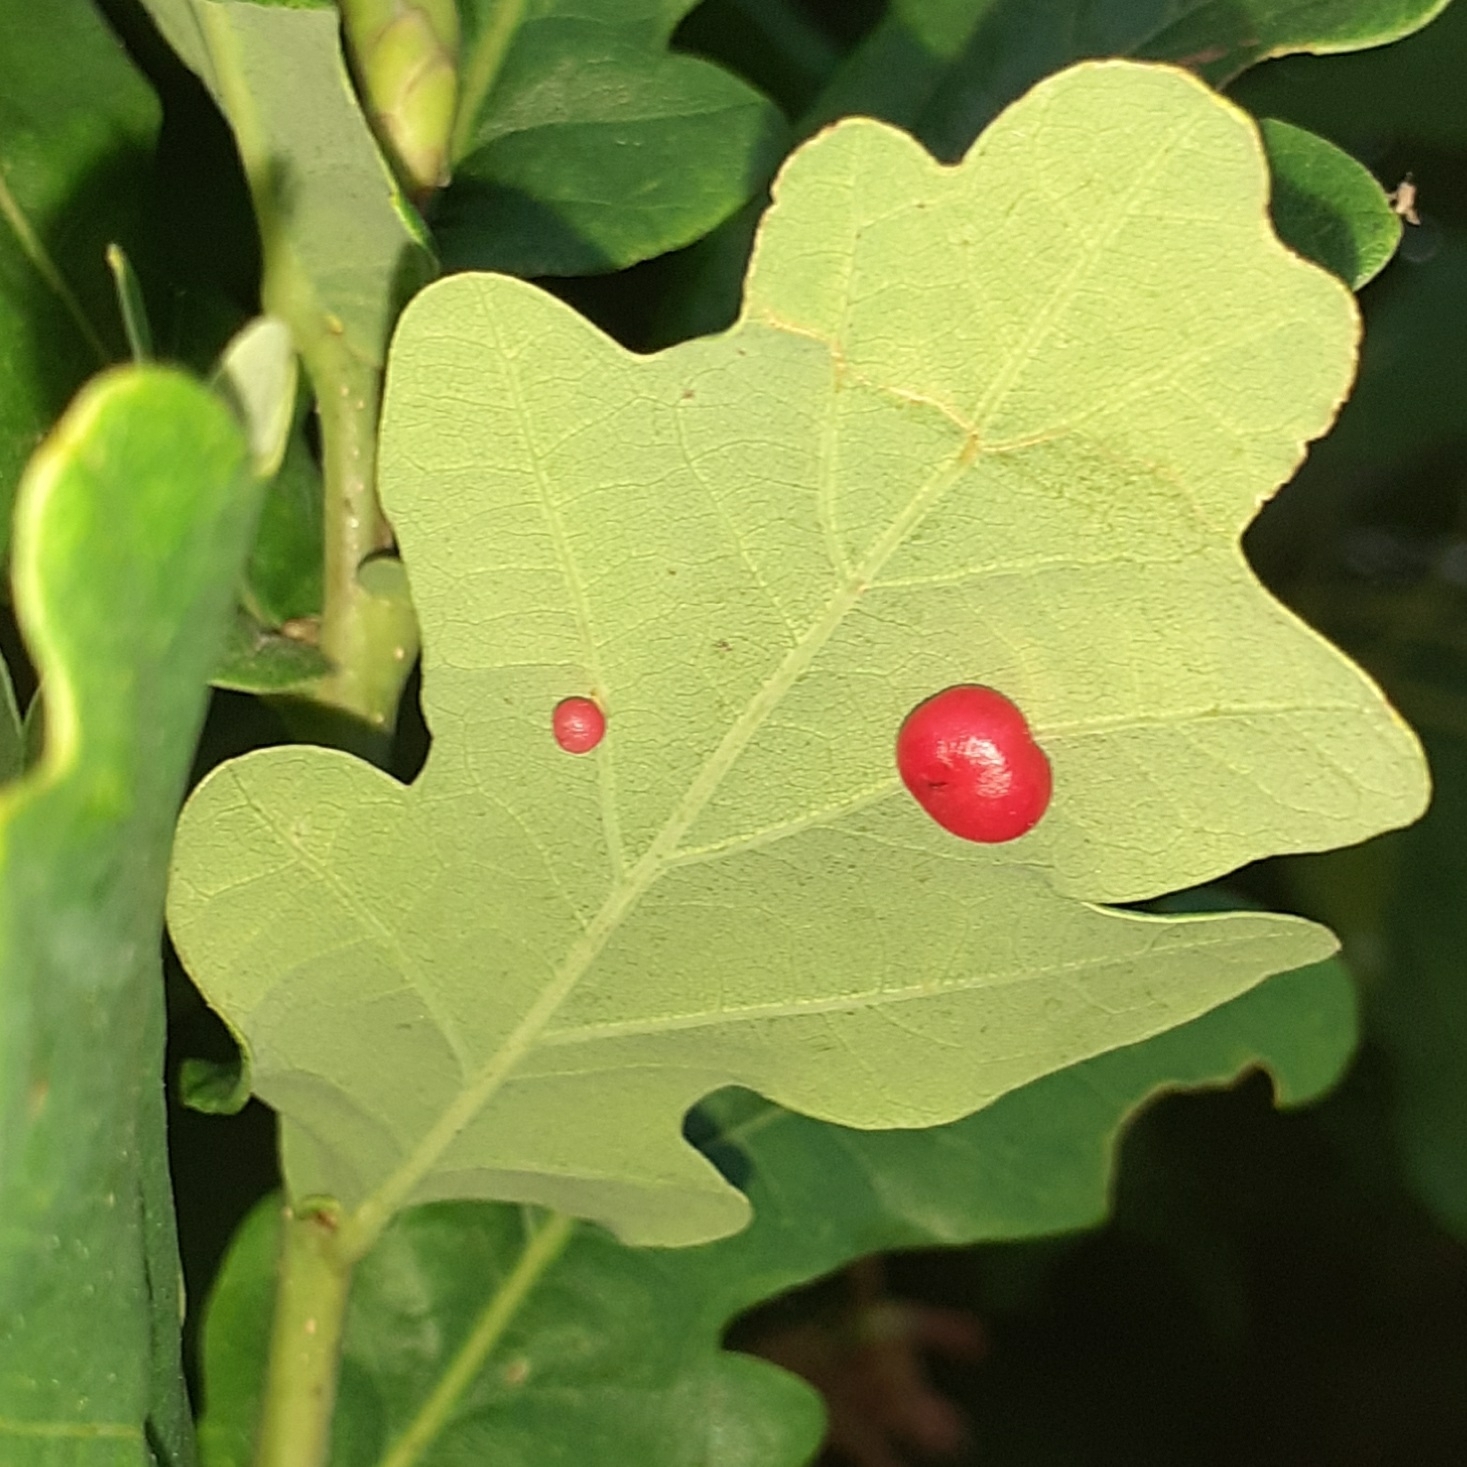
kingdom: Animalia
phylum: Arthropoda
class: Insecta
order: Hymenoptera
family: Cynipidae
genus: Cynips
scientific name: Cynips divisa
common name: Red currant gall
